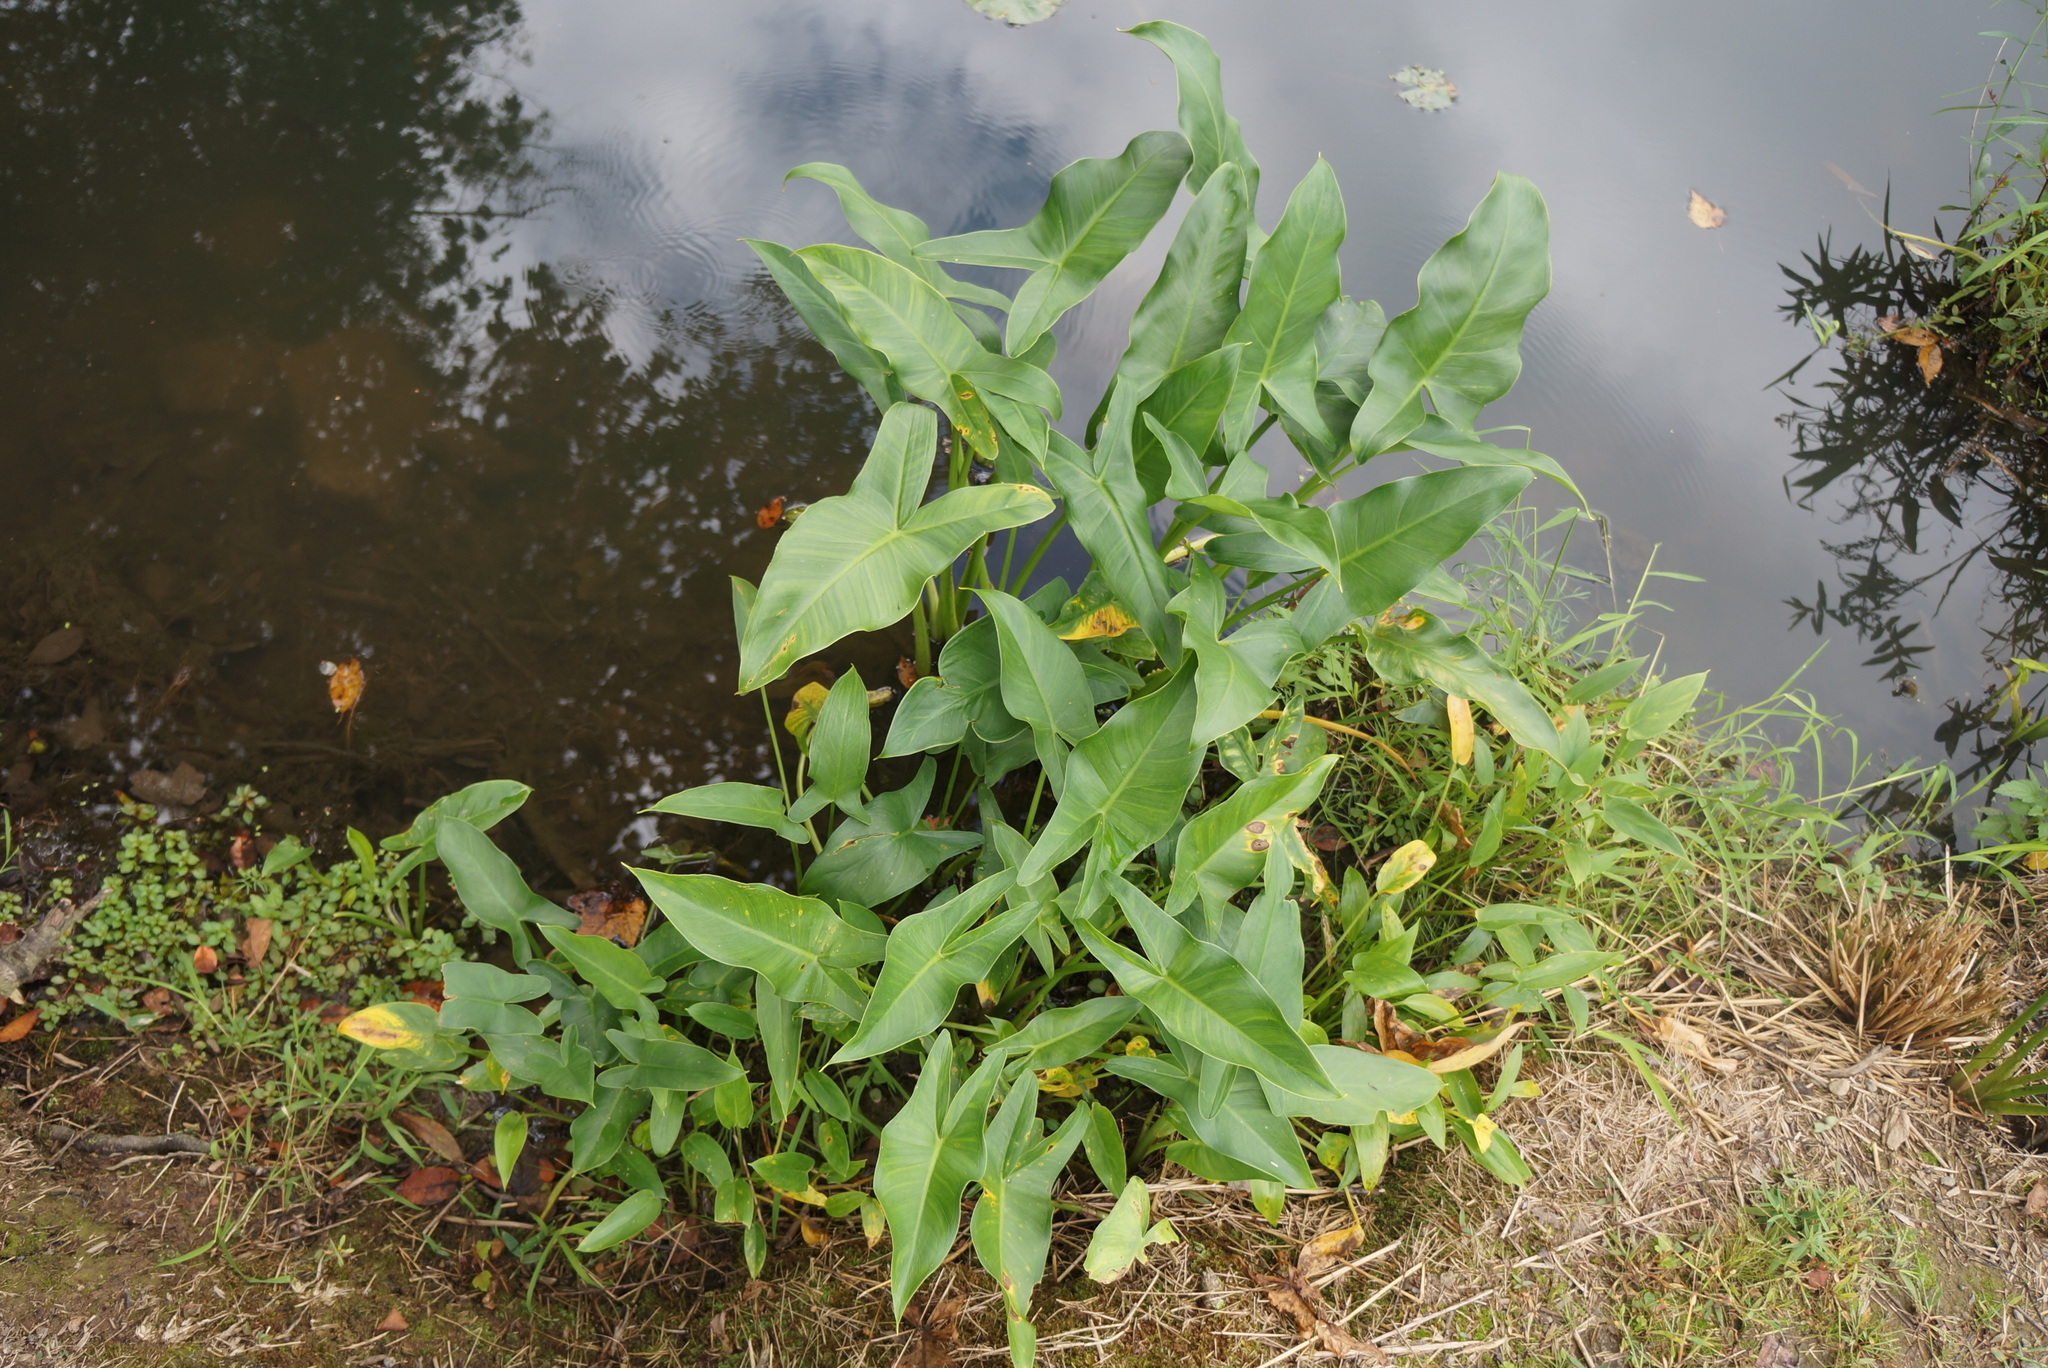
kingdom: Plantae
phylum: Tracheophyta
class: Liliopsida
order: Alismatales
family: Araceae
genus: Peltandra
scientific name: Peltandra virginica
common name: Arrow arum
